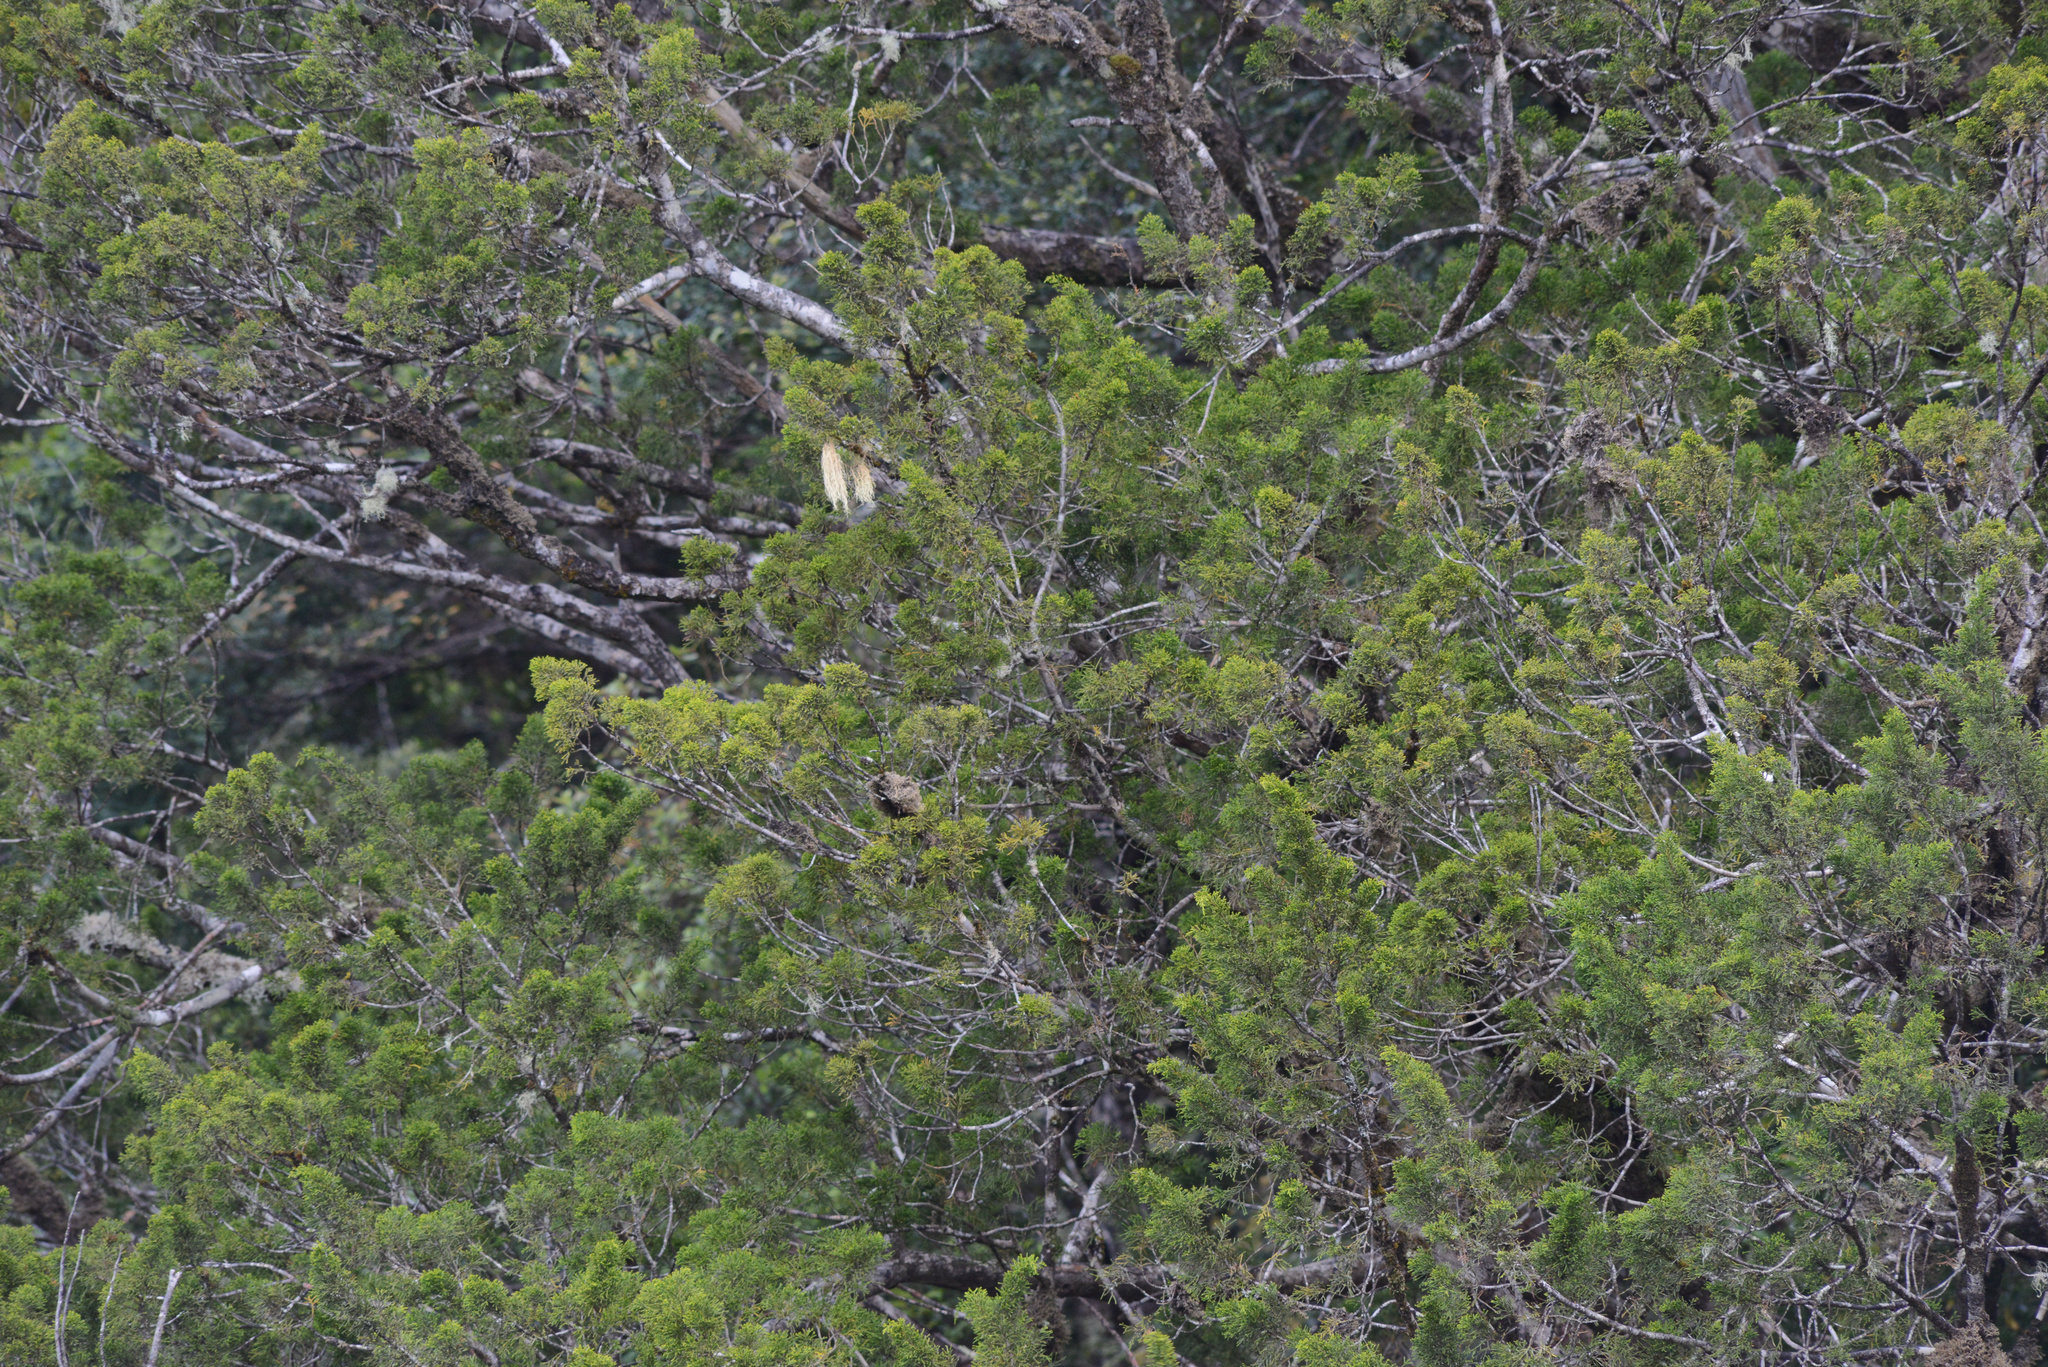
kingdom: Plantae
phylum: Tracheophyta
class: Pinopsida
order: Pinales
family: Podocarpaceae
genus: Lagarostrobos
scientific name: Lagarostrobos franklinii
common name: Huon pine
